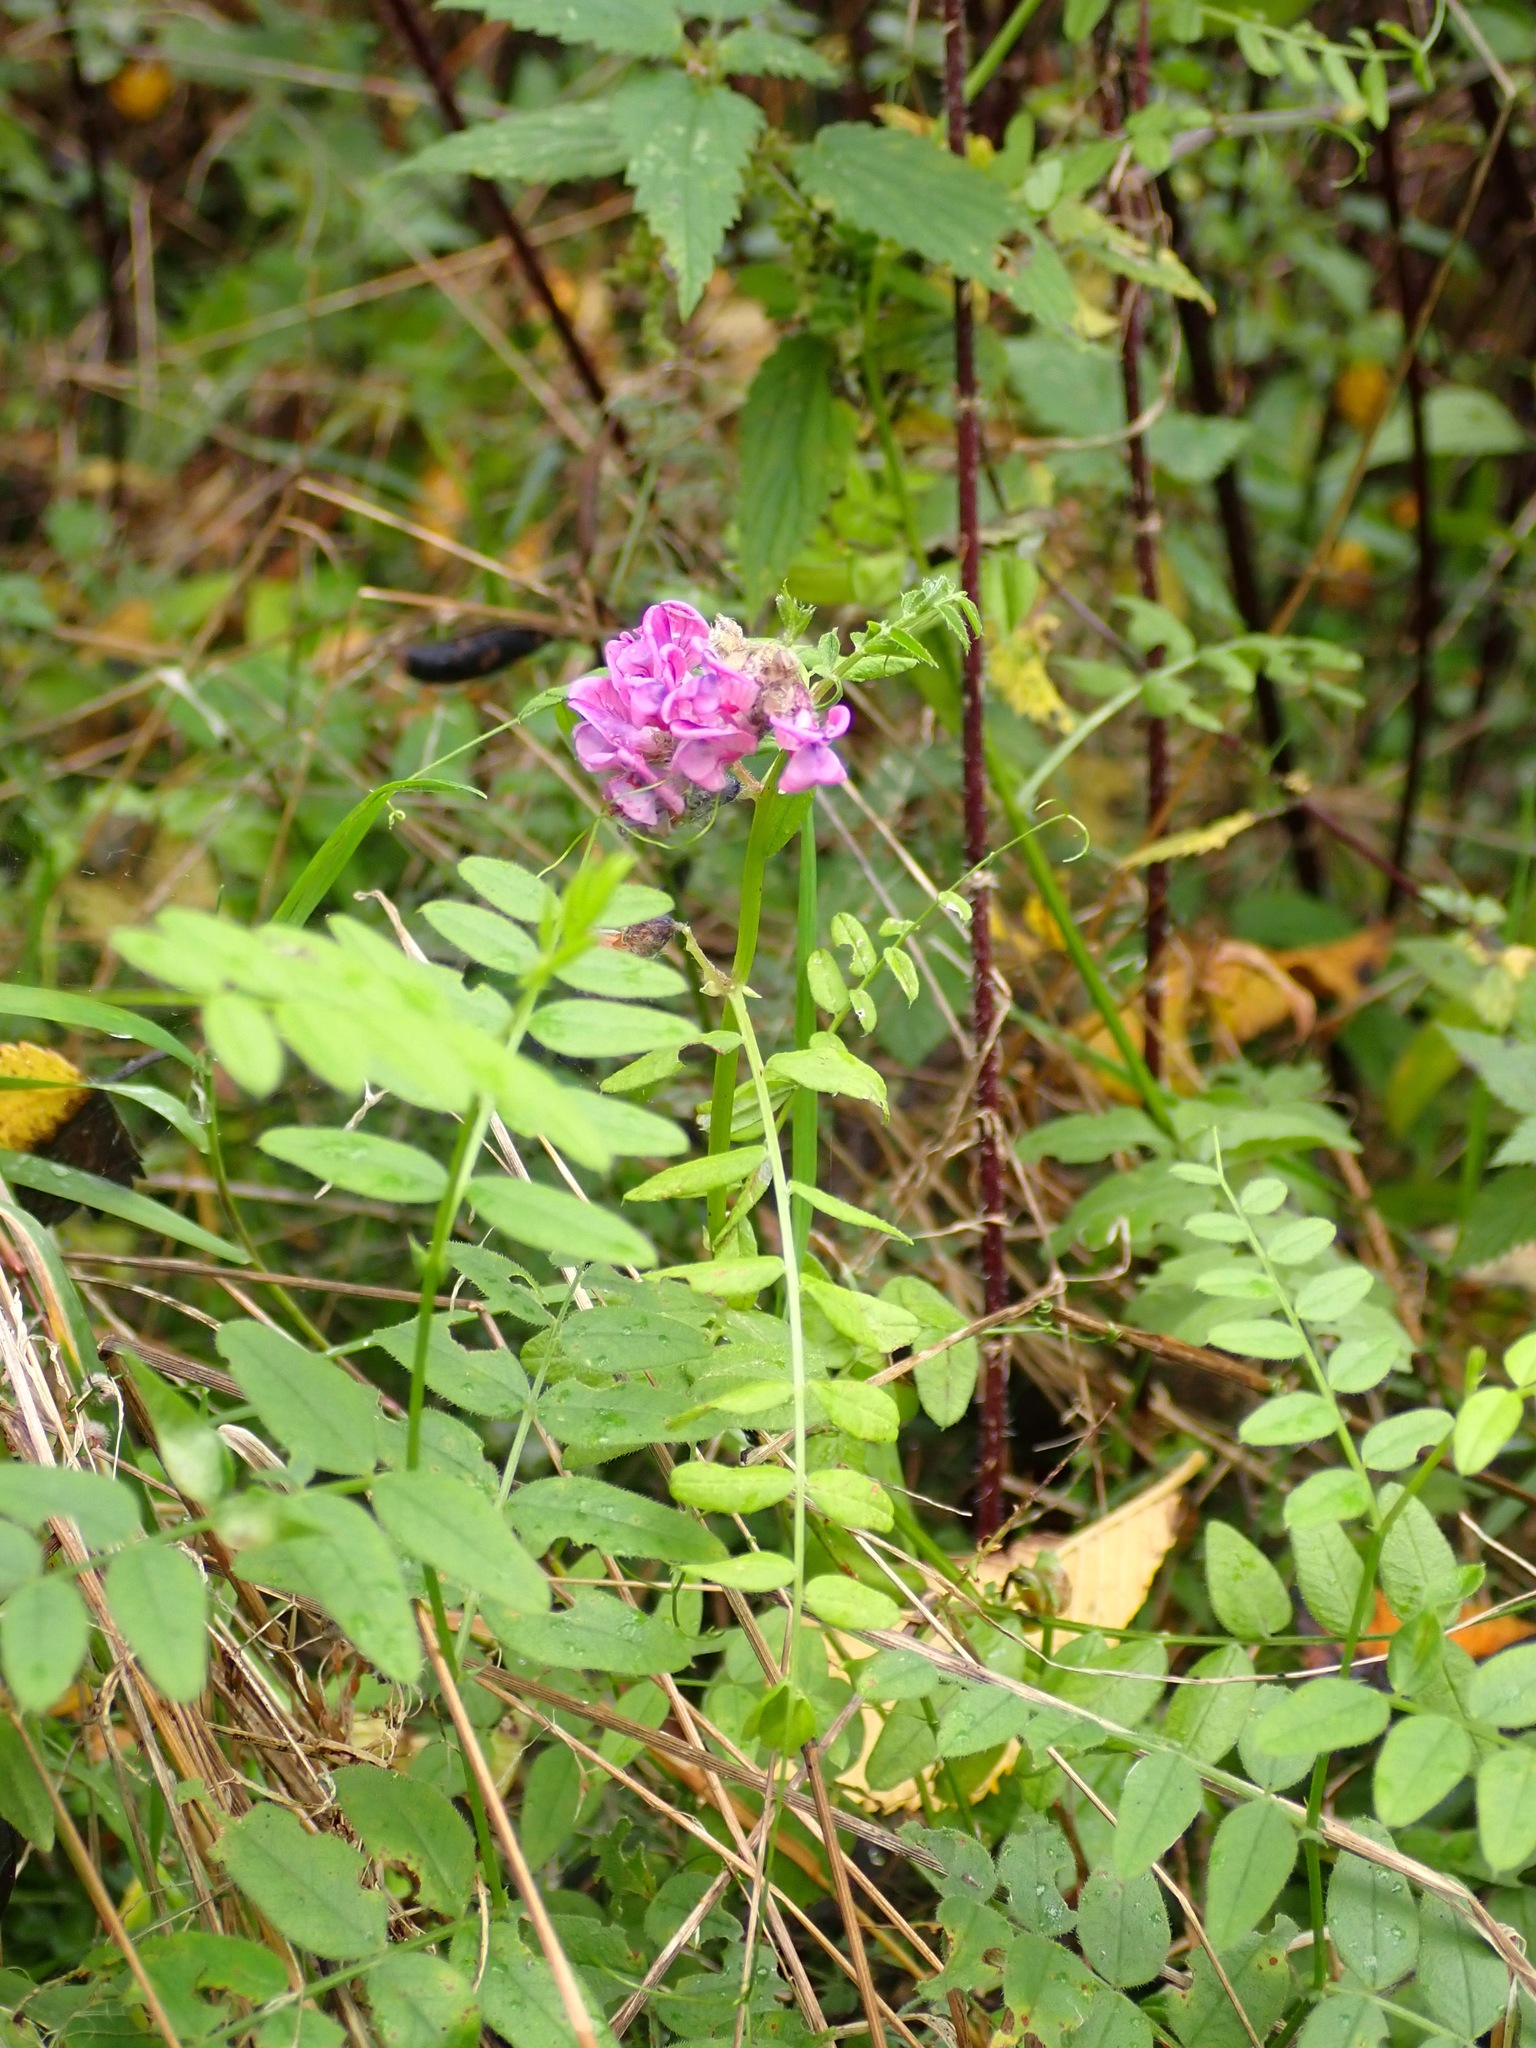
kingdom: Plantae
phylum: Tracheophyta
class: Magnoliopsida
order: Fabales
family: Fabaceae
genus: Vicia
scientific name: Vicia sepium
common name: Bush vetch
